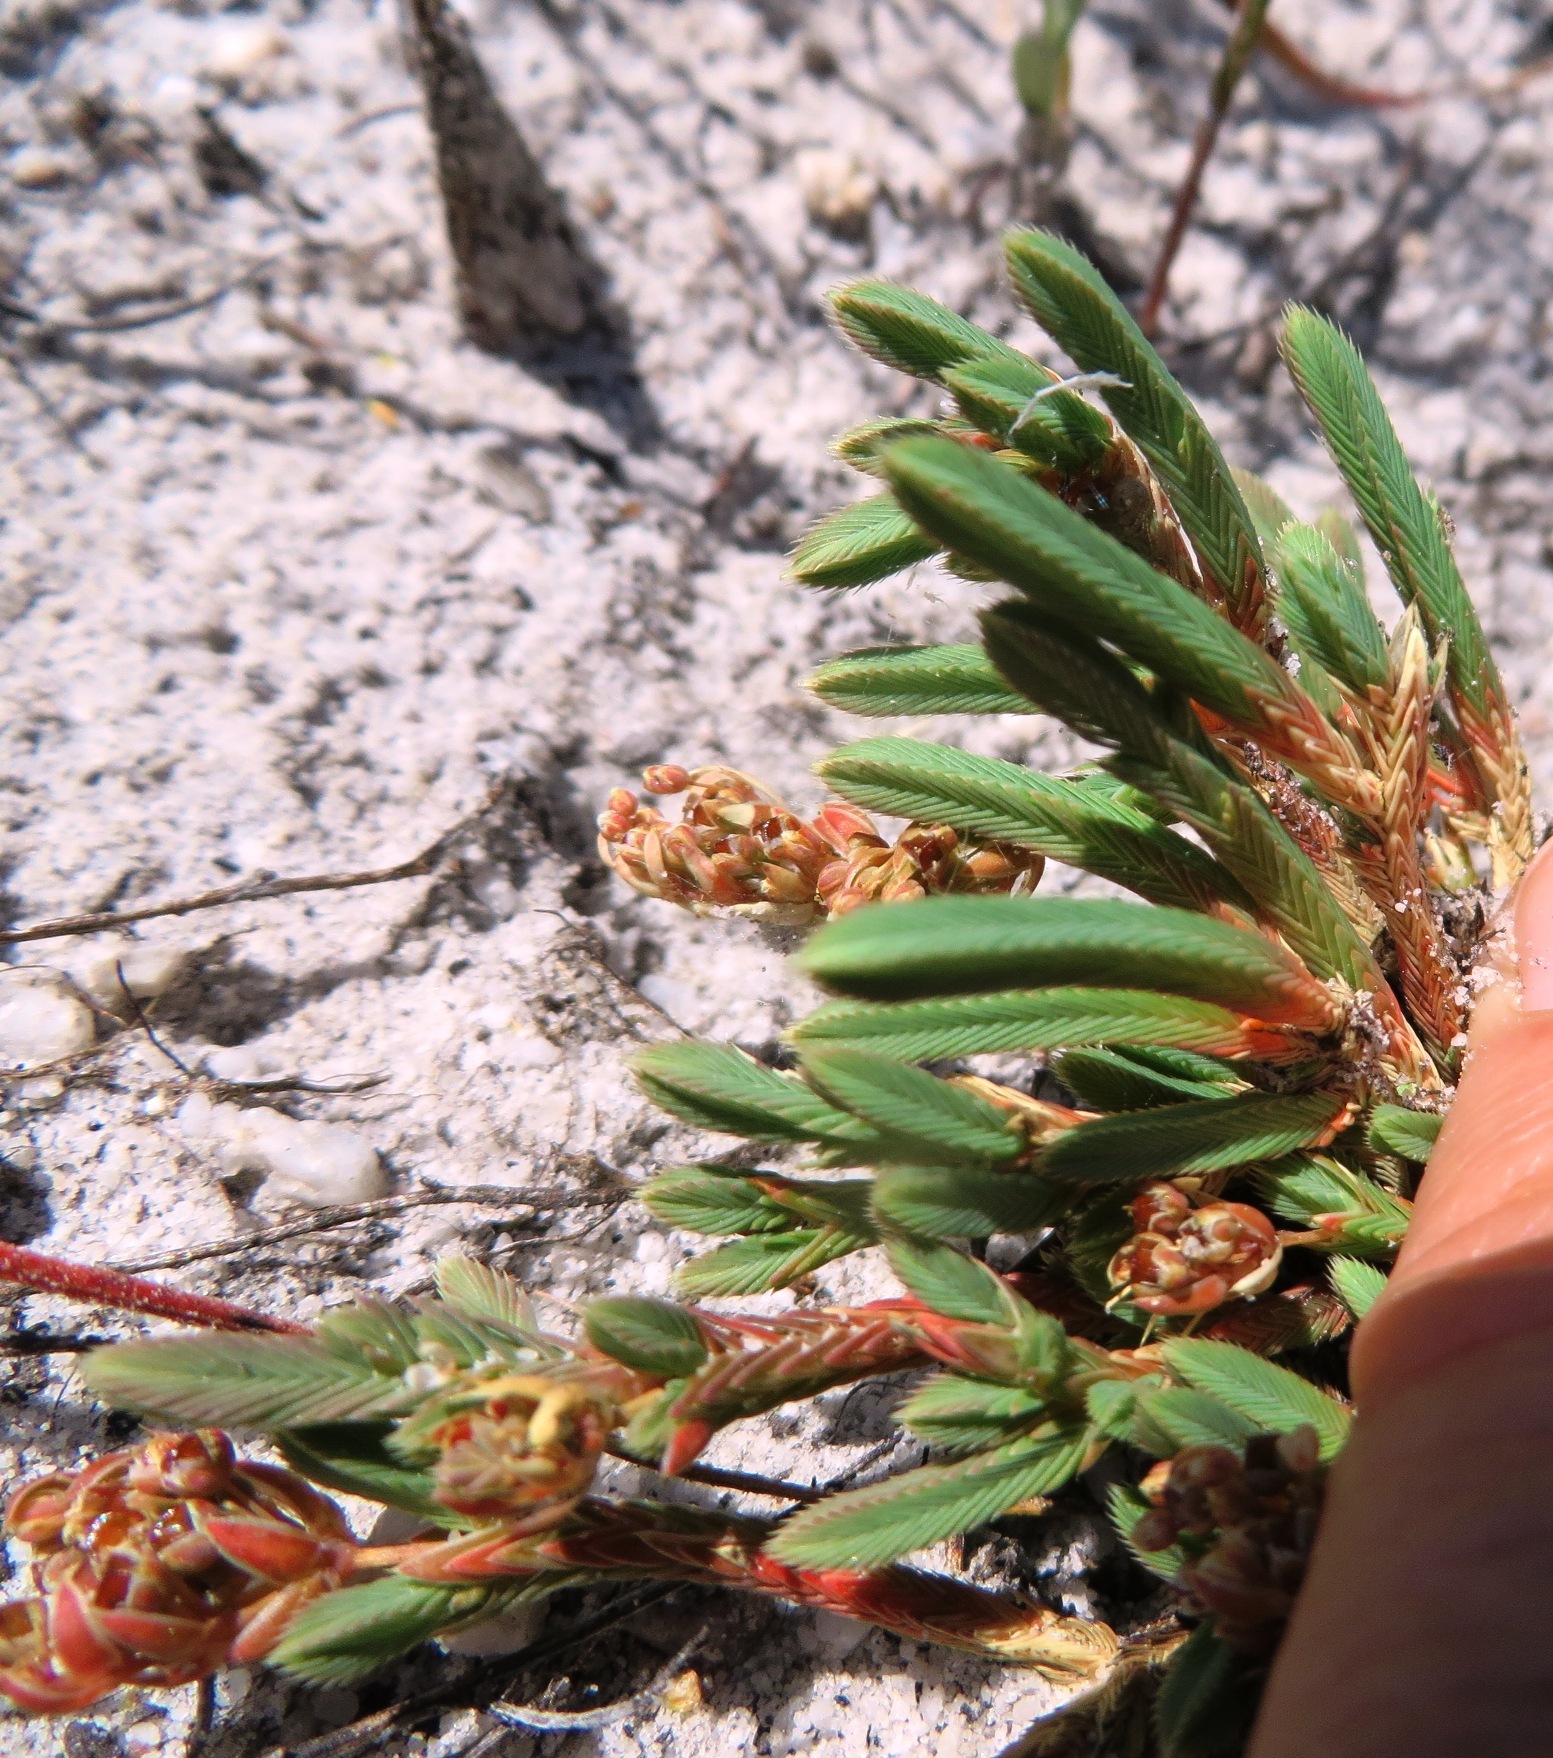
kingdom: Plantae
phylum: Tracheophyta
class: Magnoliopsida
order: Caryophyllales
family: Molluginaceae
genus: Psammotropha
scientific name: Psammotropha anguina
